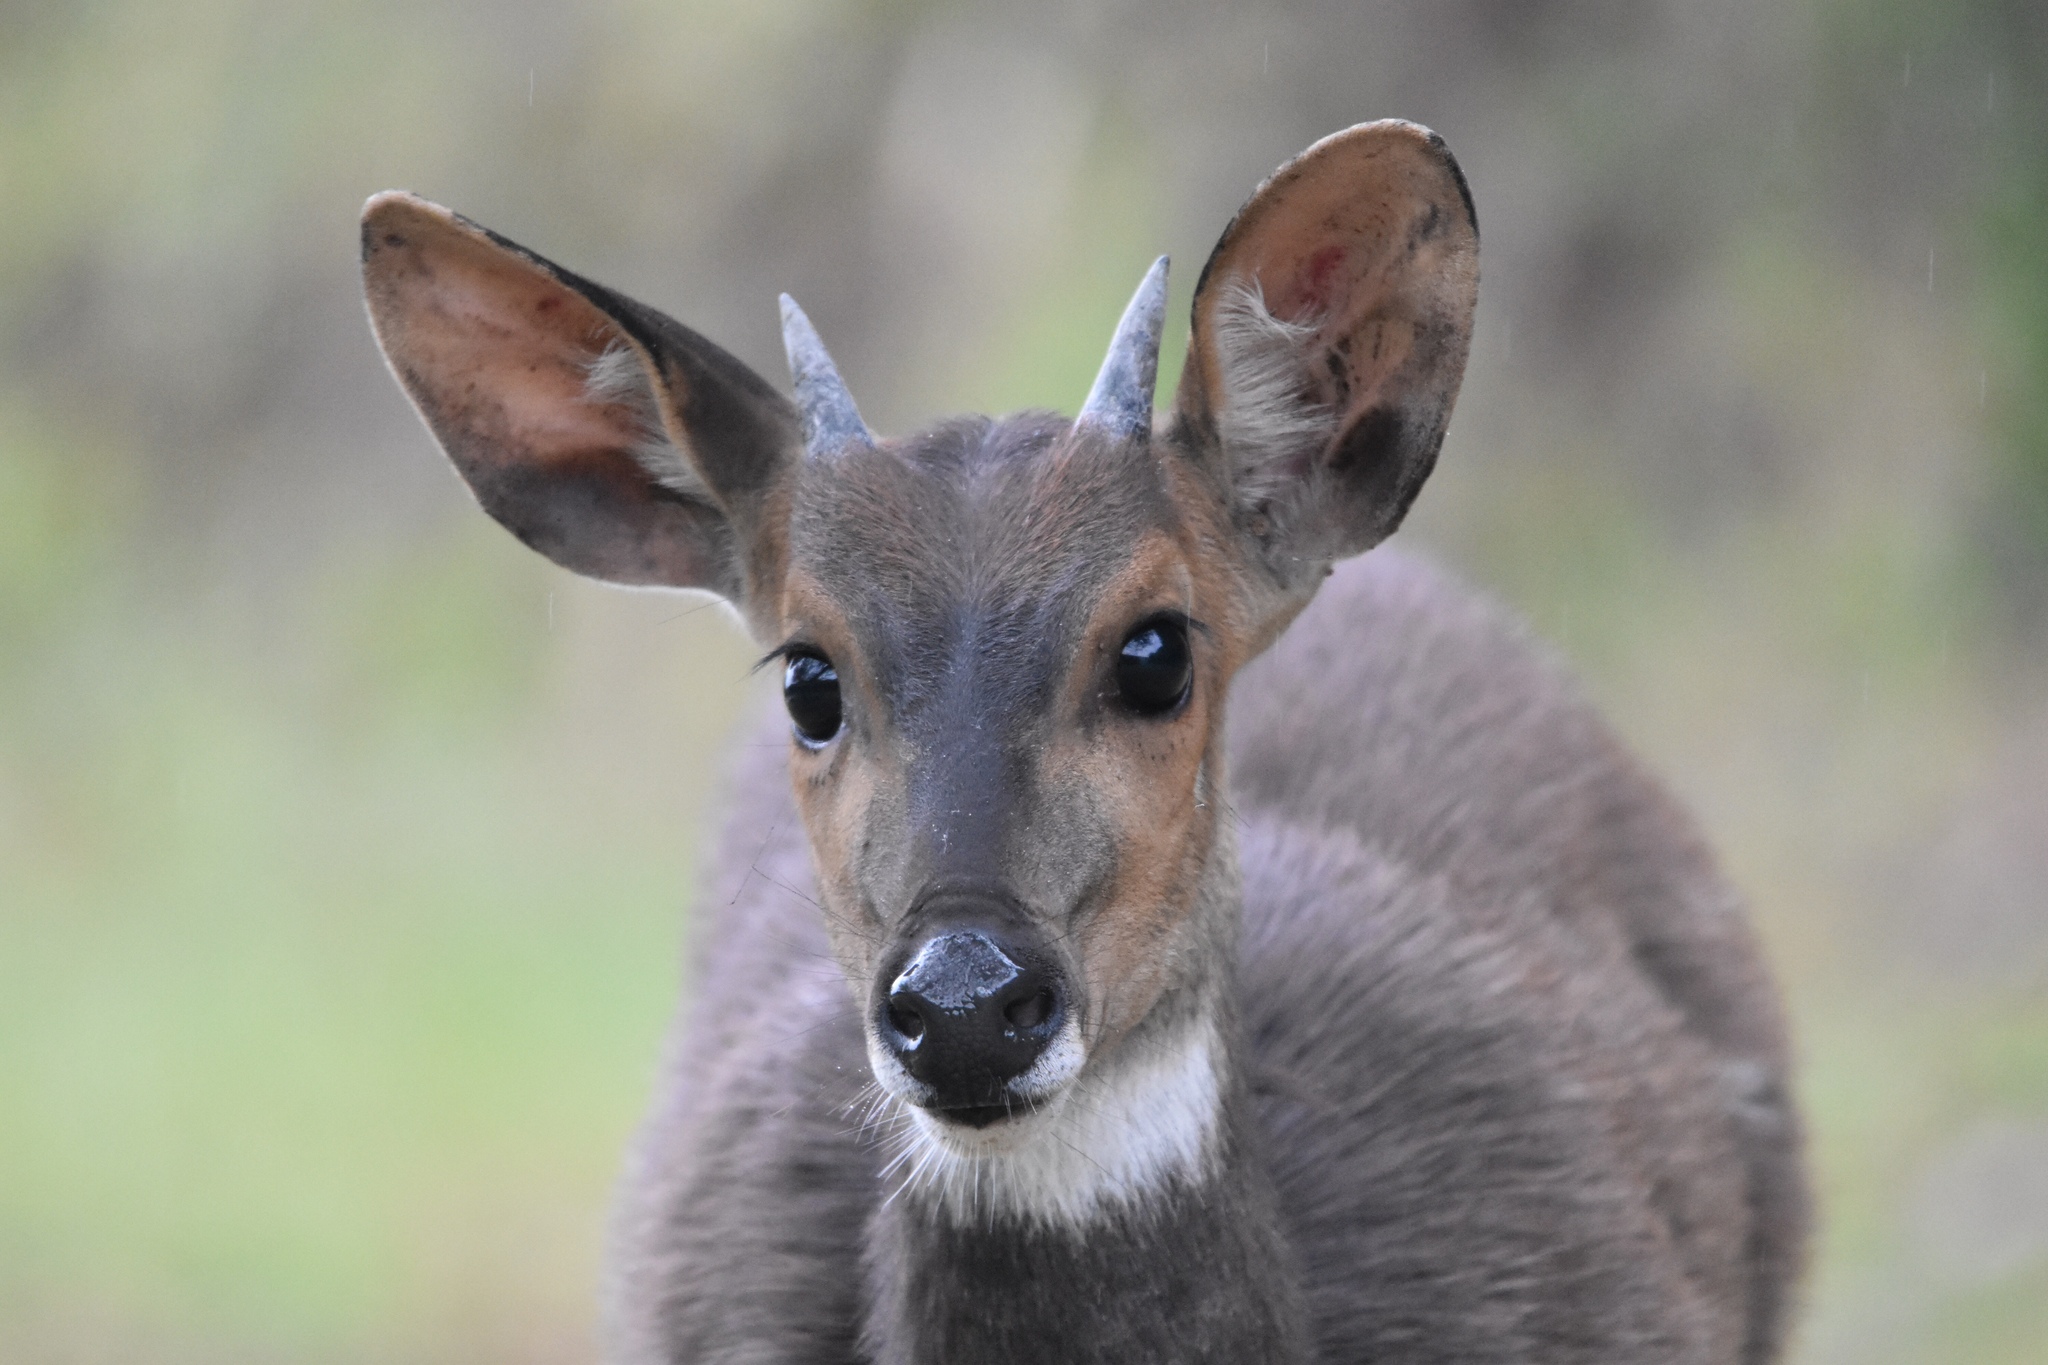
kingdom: Animalia
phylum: Chordata
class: Mammalia
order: Artiodactyla
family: Bovidae
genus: Tragelaphus
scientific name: Tragelaphus scriptus
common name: Bushbuck
